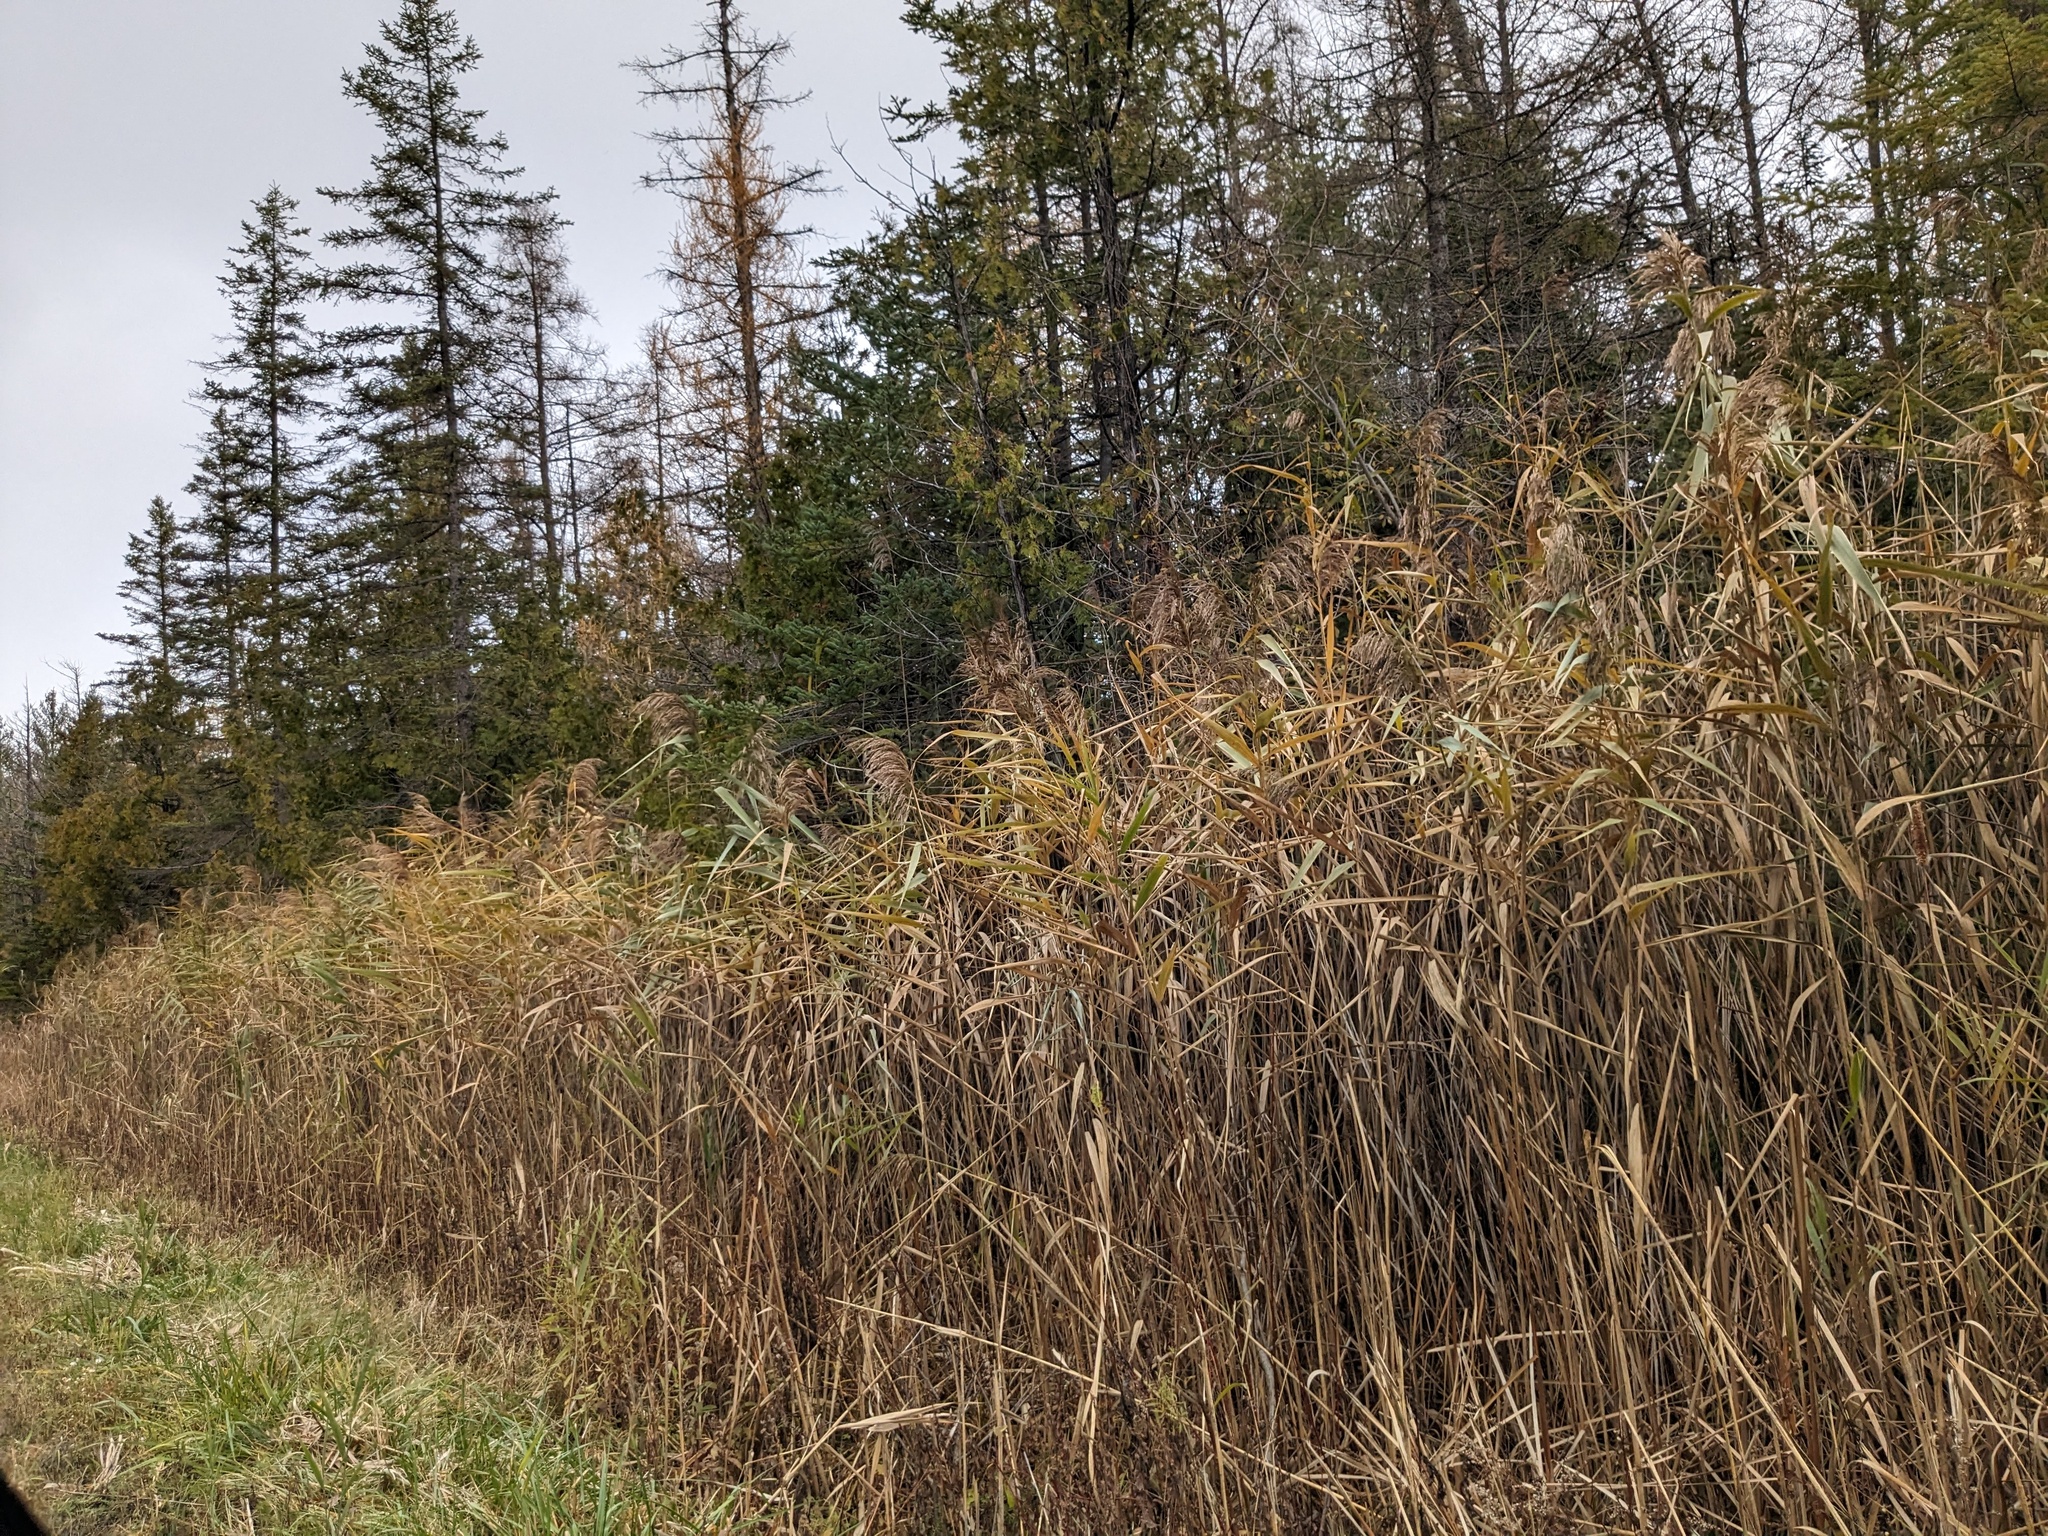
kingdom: Plantae
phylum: Tracheophyta
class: Liliopsida
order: Poales
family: Poaceae
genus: Phragmites
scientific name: Phragmites australis
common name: Common reed
